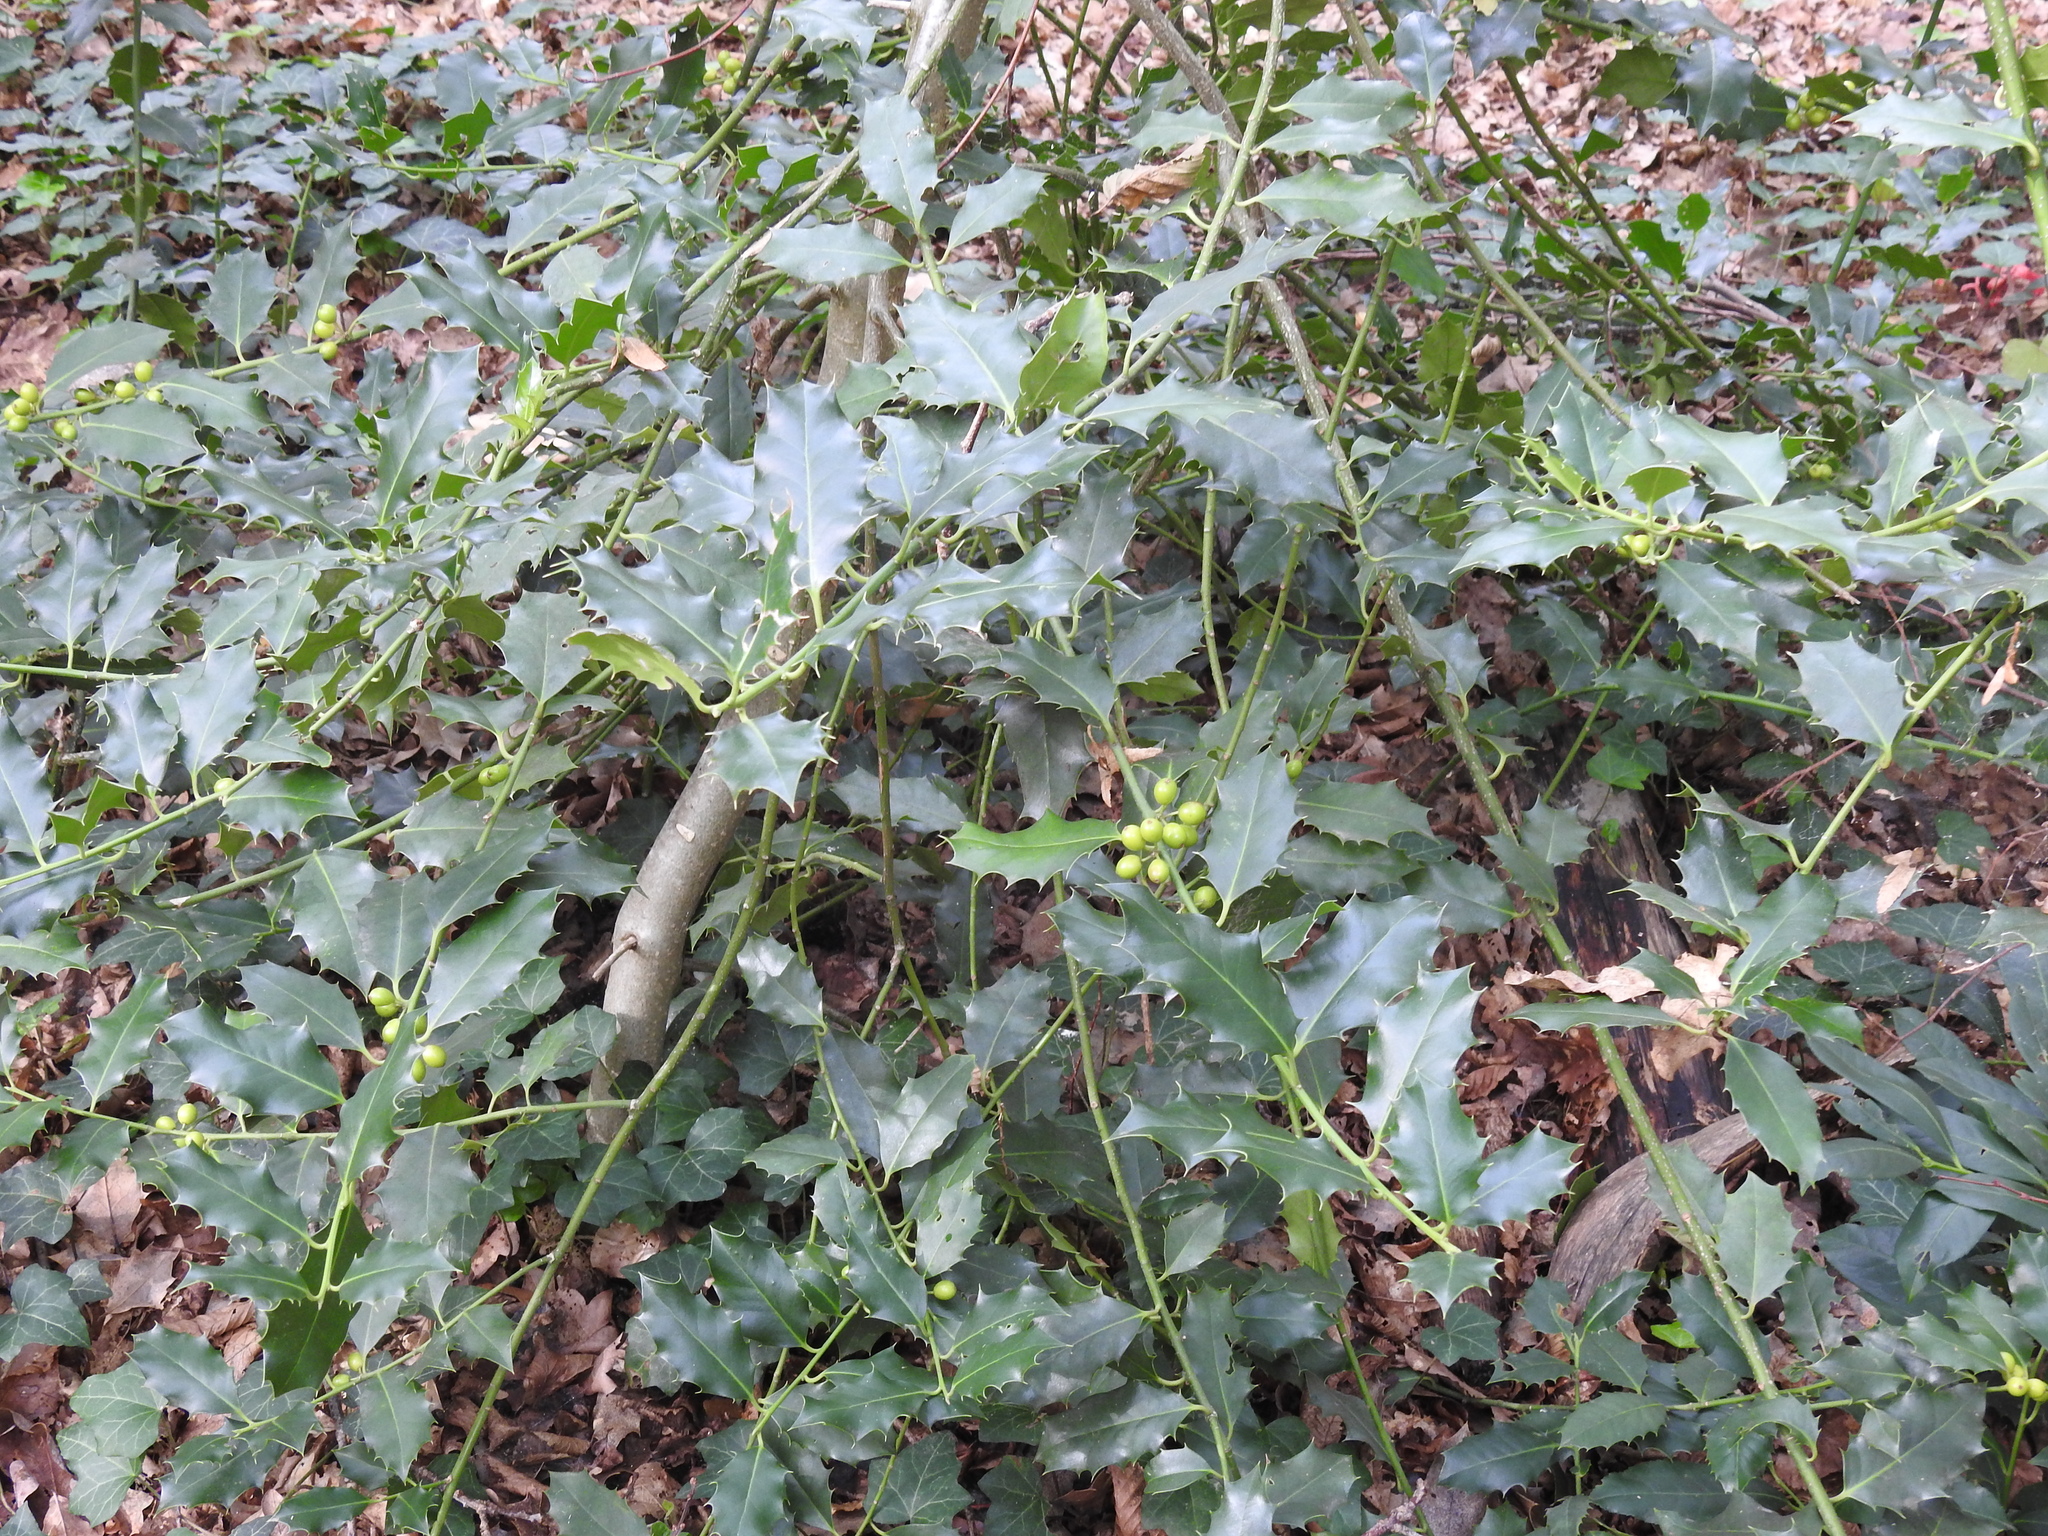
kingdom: Plantae
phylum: Tracheophyta
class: Magnoliopsida
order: Aquifoliales
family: Aquifoliaceae
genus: Ilex
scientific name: Ilex aquifolium
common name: English holly
